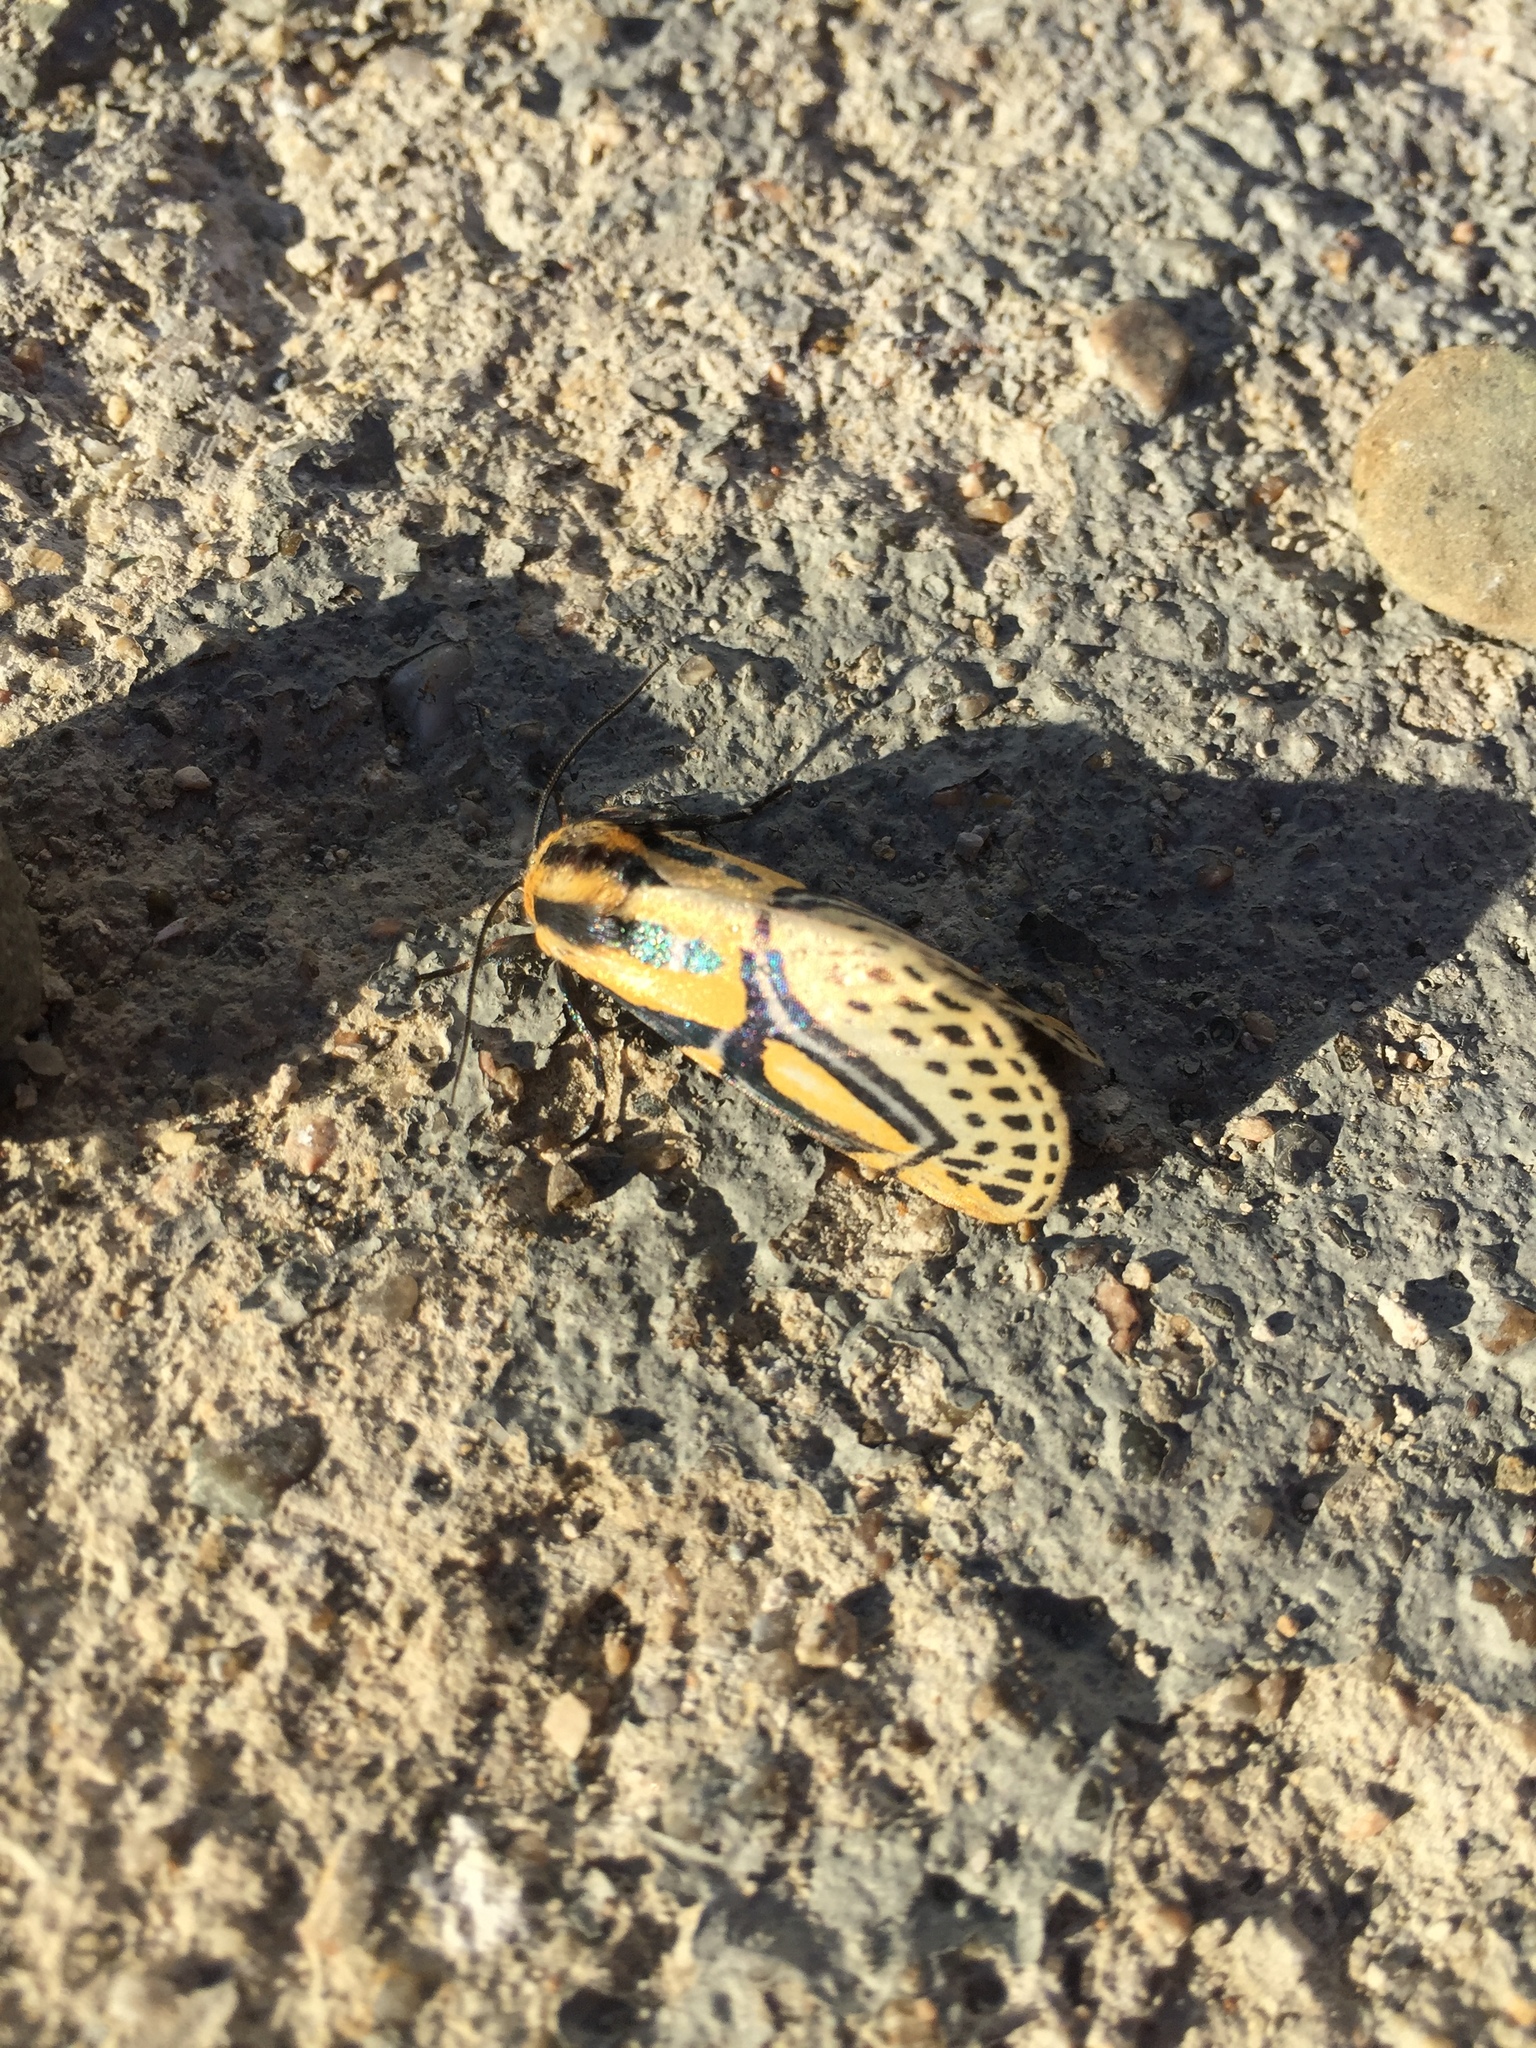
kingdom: Animalia
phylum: Arthropoda
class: Insecta
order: Lepidoptera
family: Erebidae
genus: Diphthera
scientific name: Diphthera festiva
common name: Hieroglyphic moth
